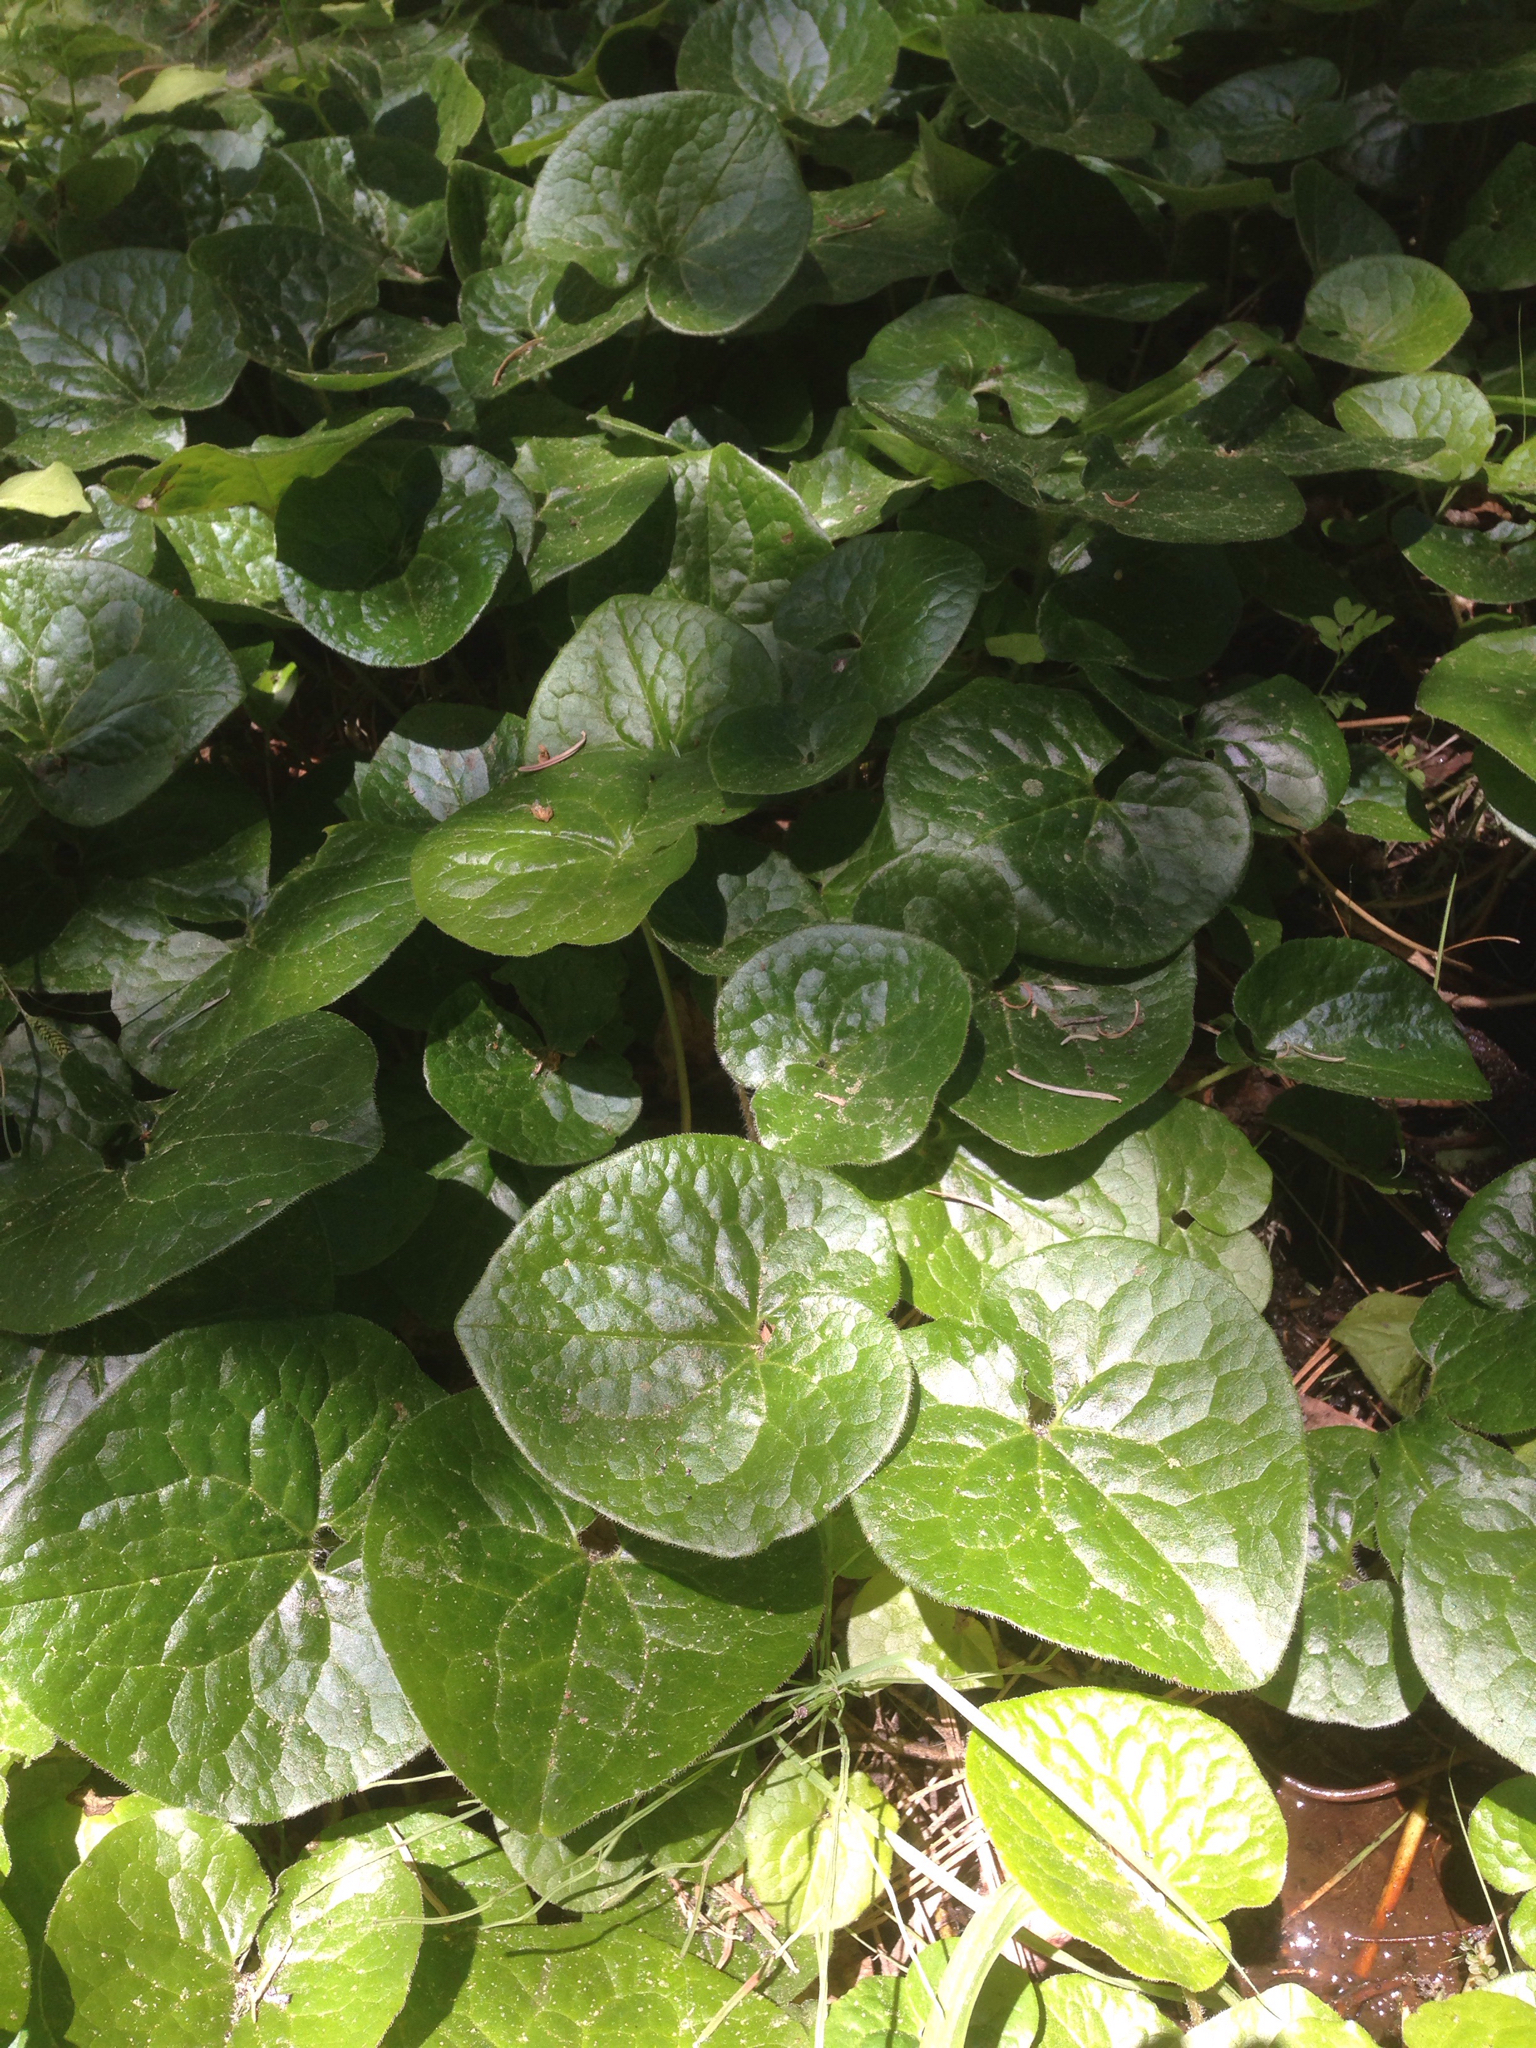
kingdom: Plantae
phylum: Tracheophyta
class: Magnoliopsida
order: Piperales
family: Aristolochiaceae
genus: Asarum
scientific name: Asarum lemmonii
